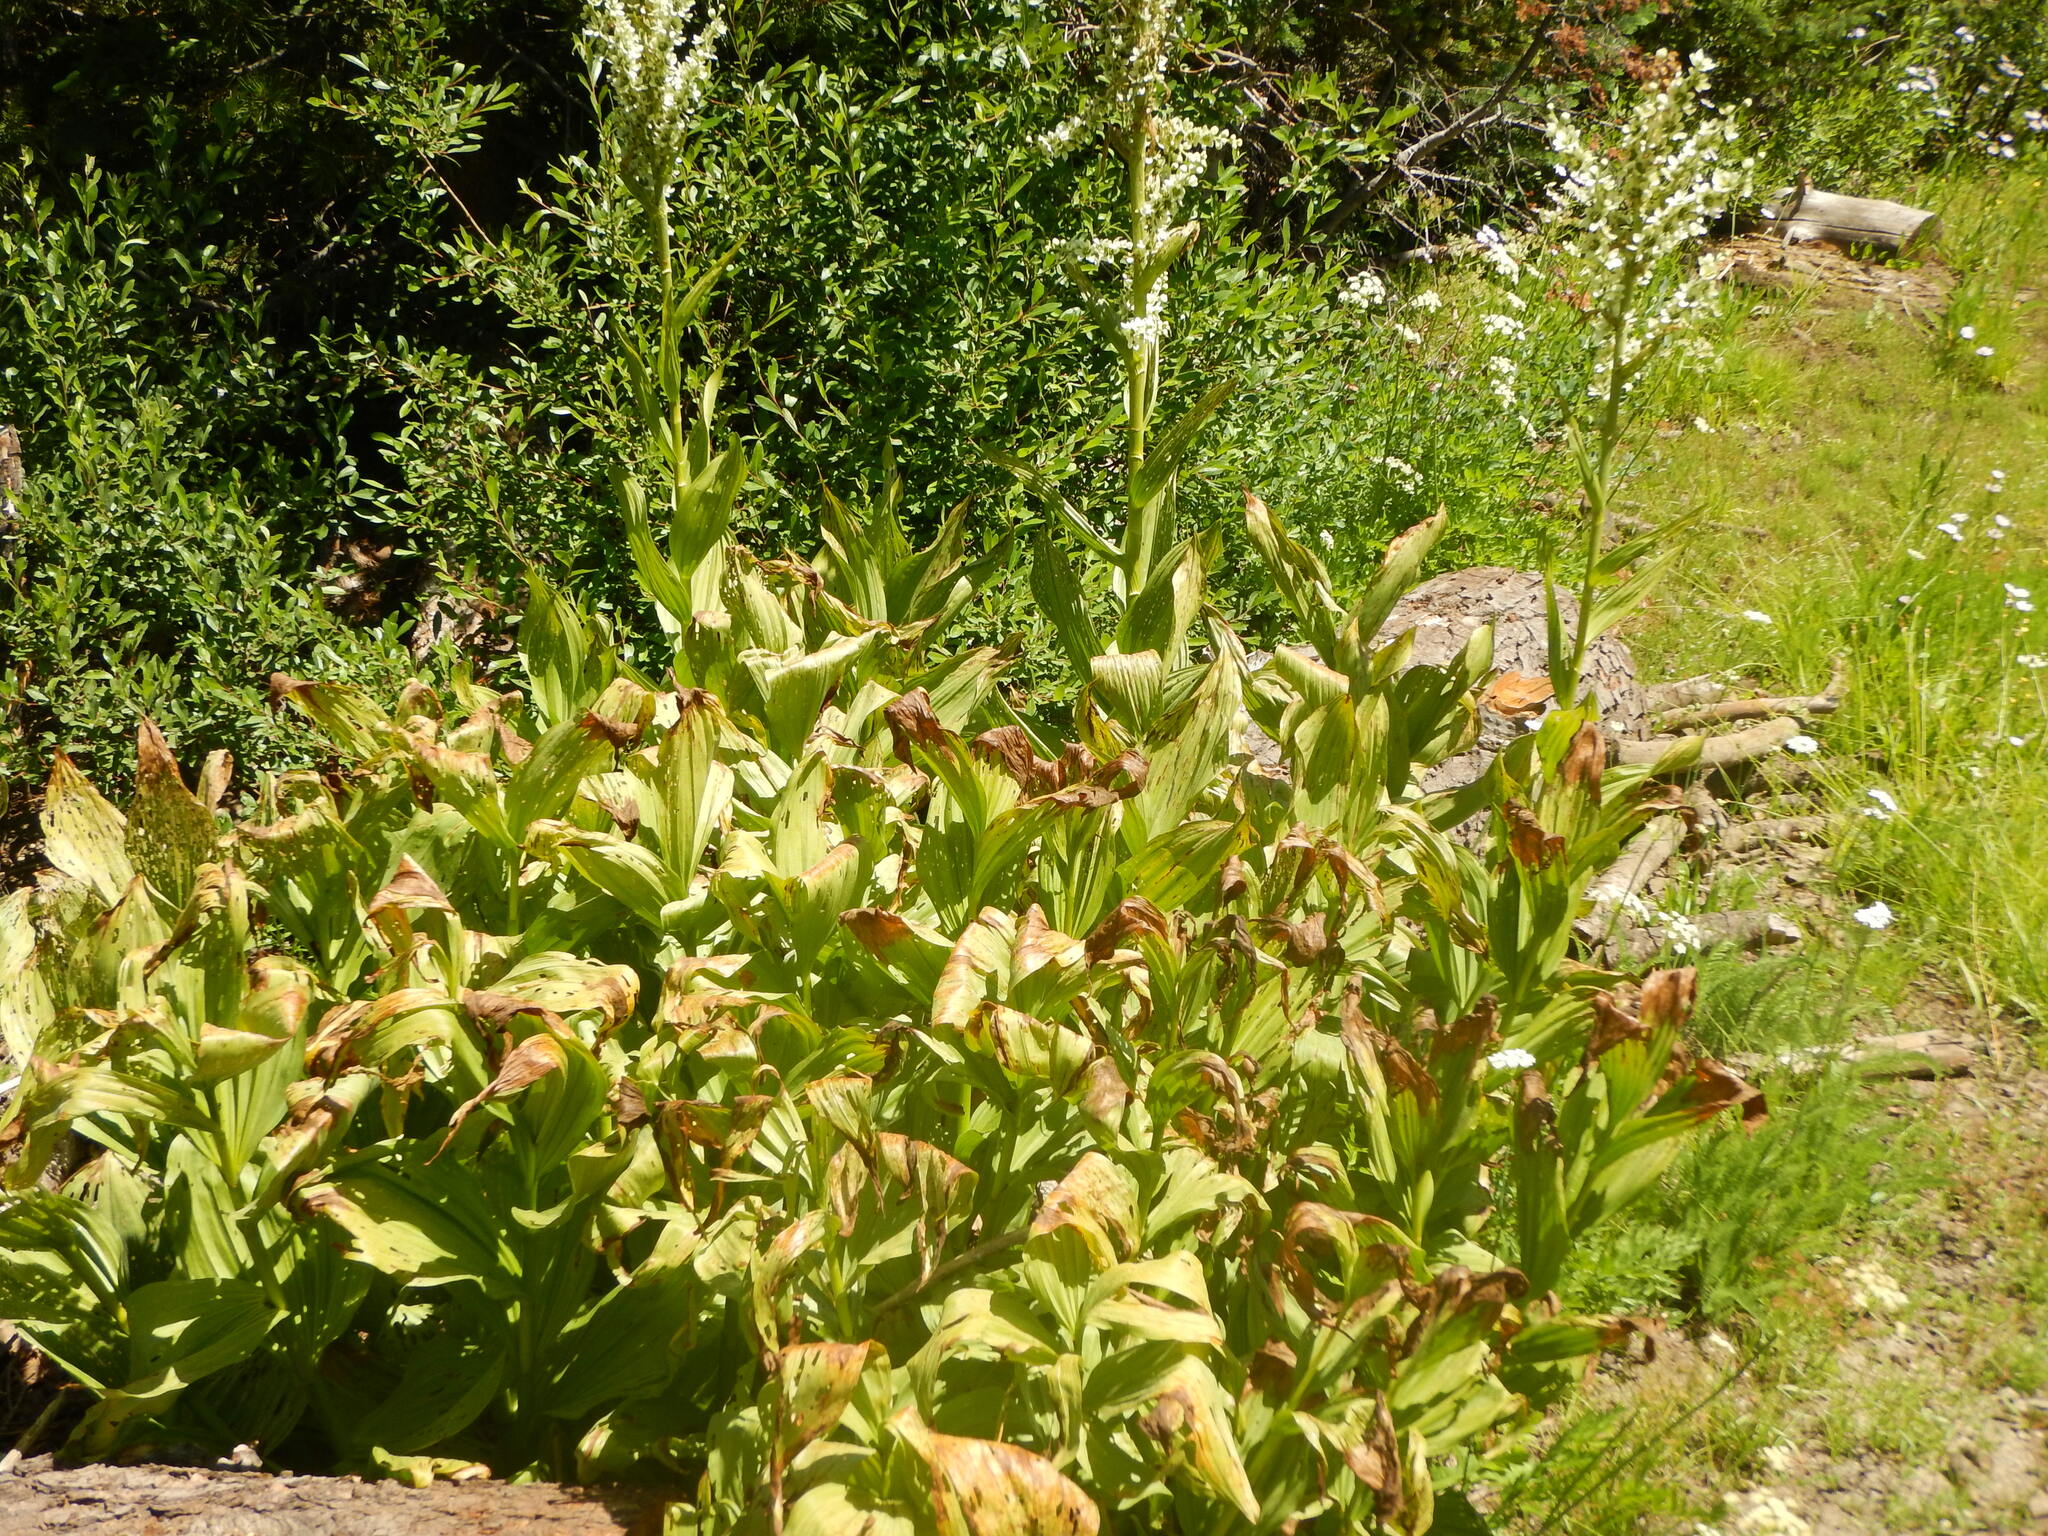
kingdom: Plantae
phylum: Tracheophyta
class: Liliopsida
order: Liliales
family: Melanthiaceae
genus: Veratrum
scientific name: Veratrum californicum
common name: California veratrum
